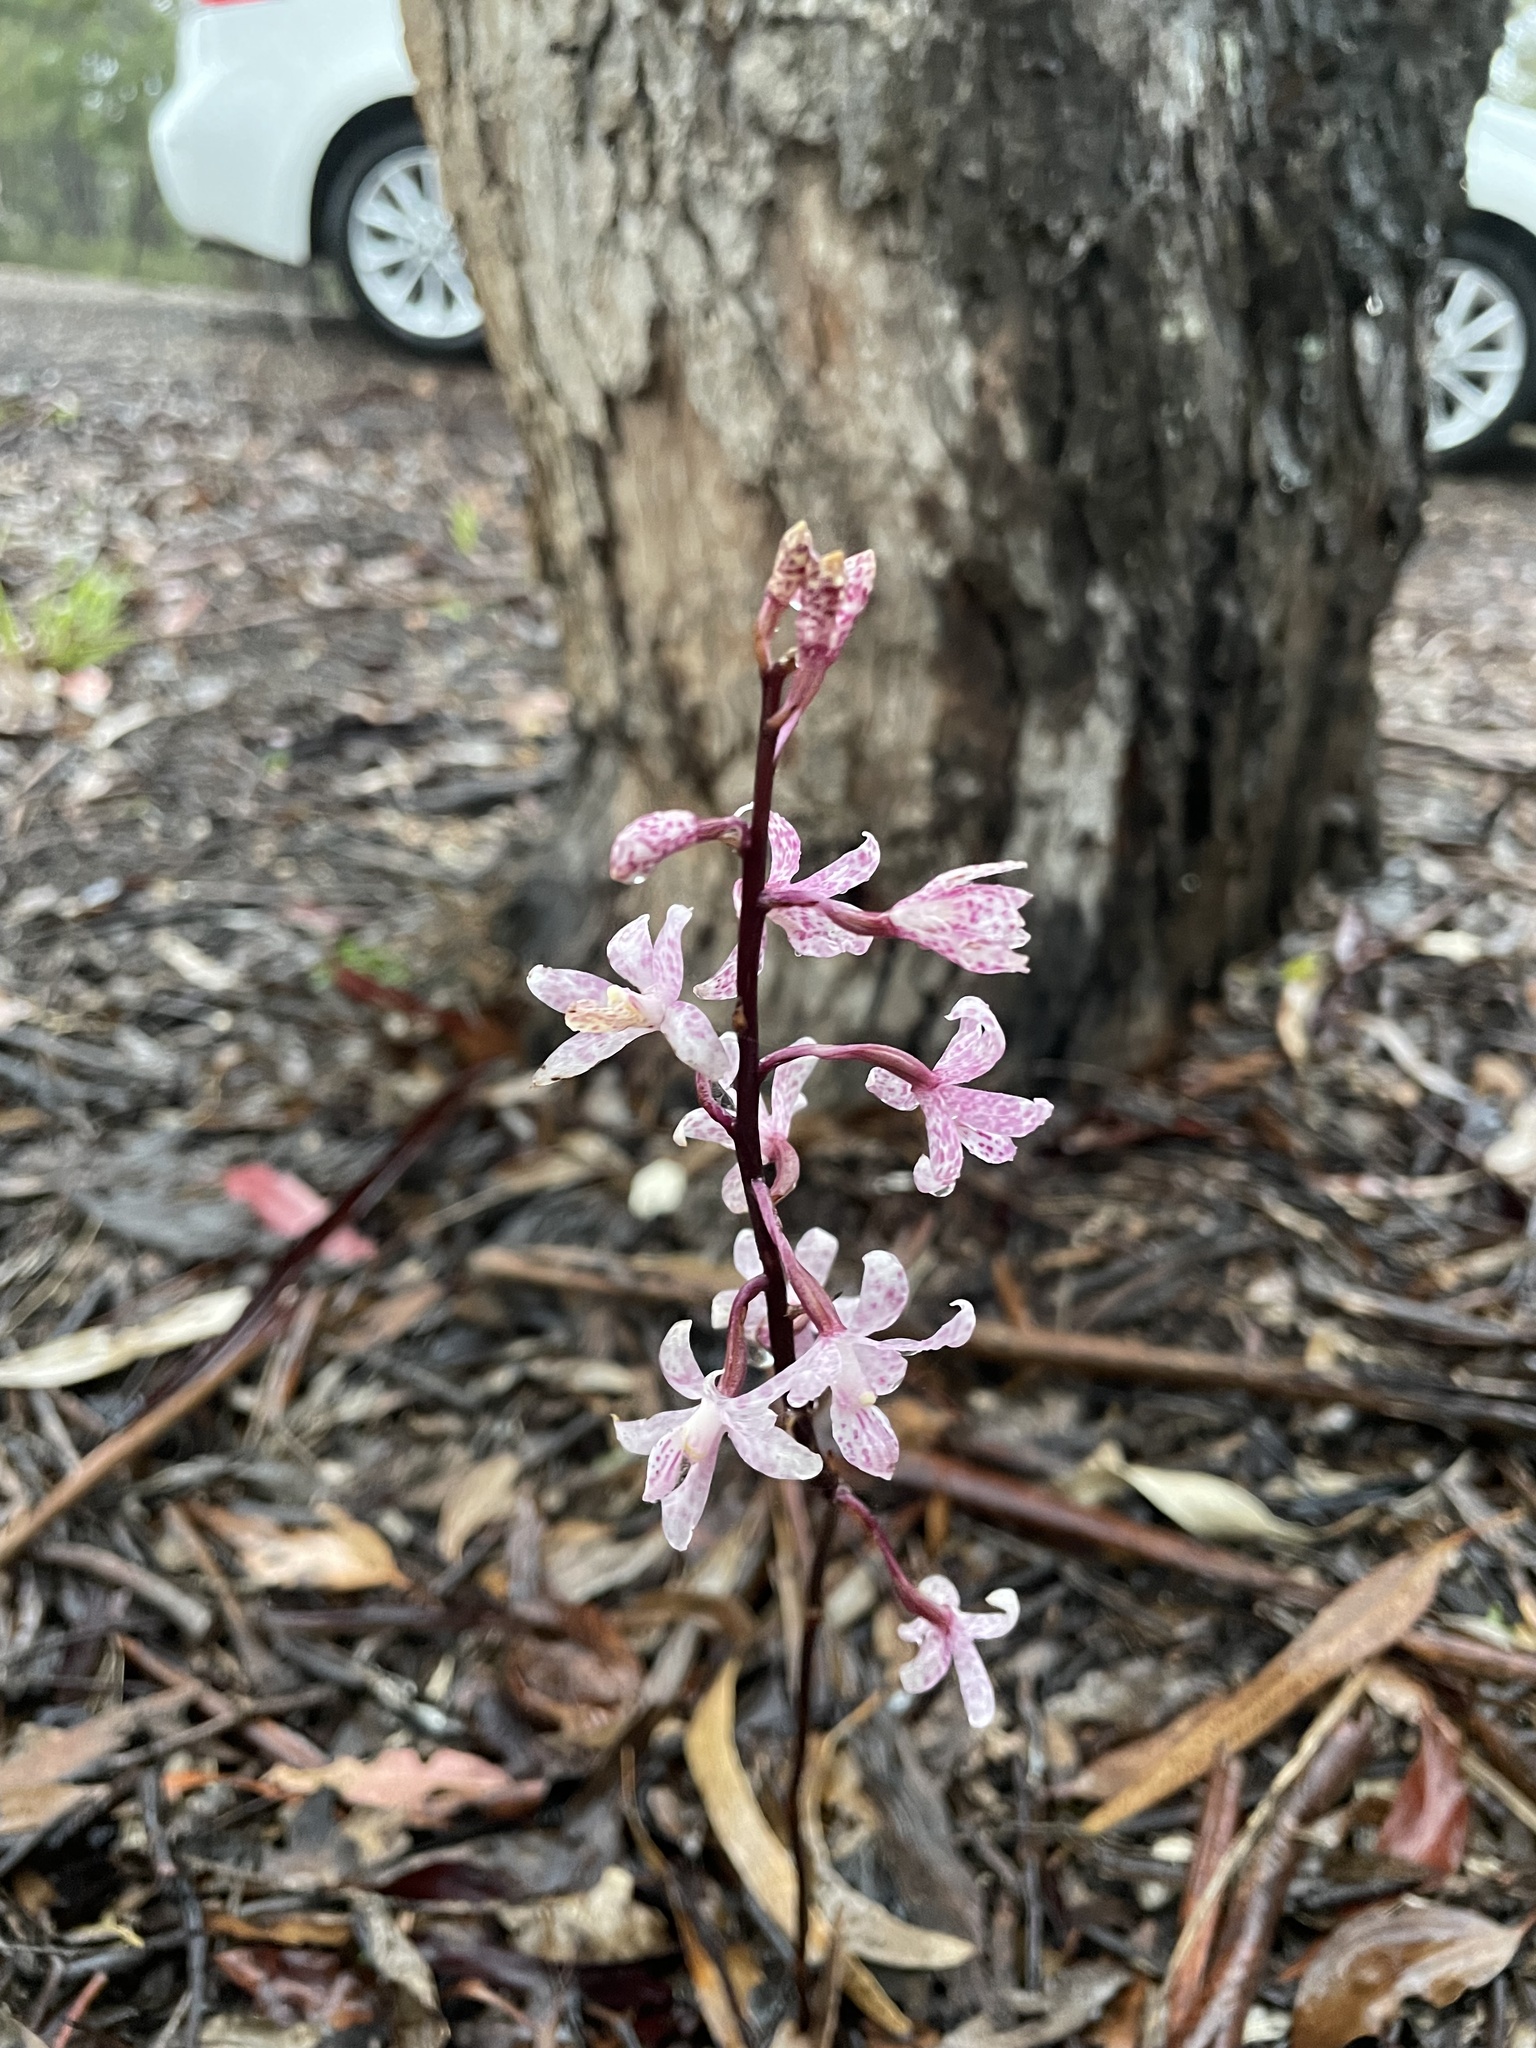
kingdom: Plantae
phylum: Tracheophyta
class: Liliopsida
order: Asparagales
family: Orchidaceae
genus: Dipodium
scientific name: Dipodium roseum
